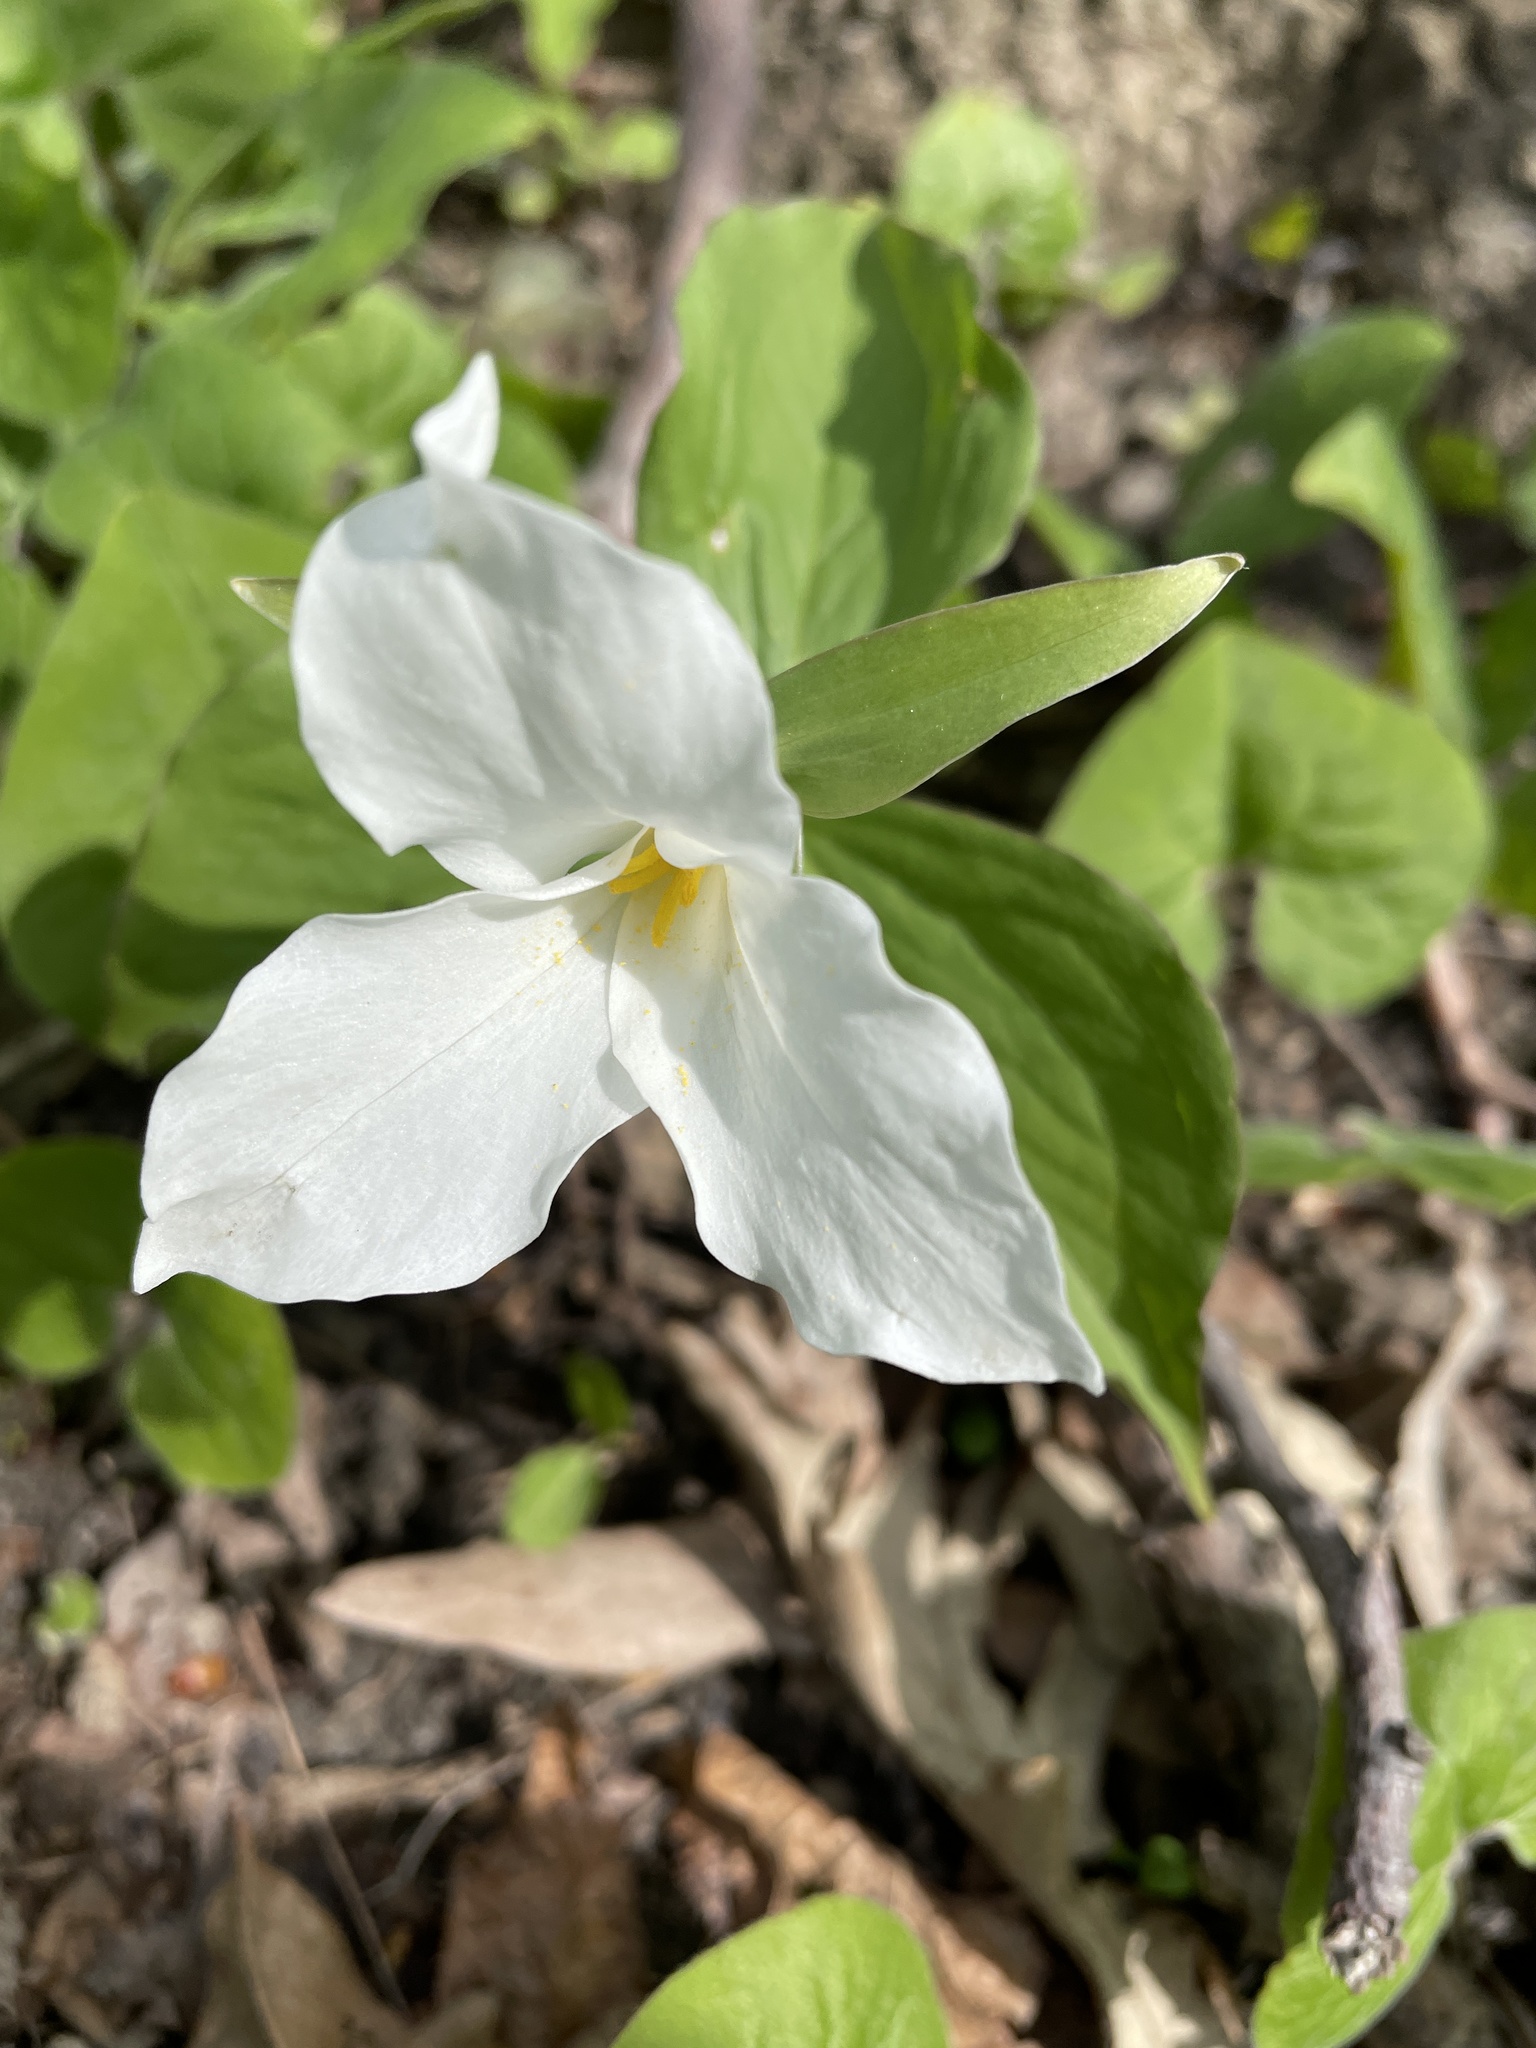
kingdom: Plantae
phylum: Tracheophyta
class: Liliopsida
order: Liliales
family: Melanthiaceae
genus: Trillium
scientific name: Trillium grandiflorum
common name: Great white trillium
